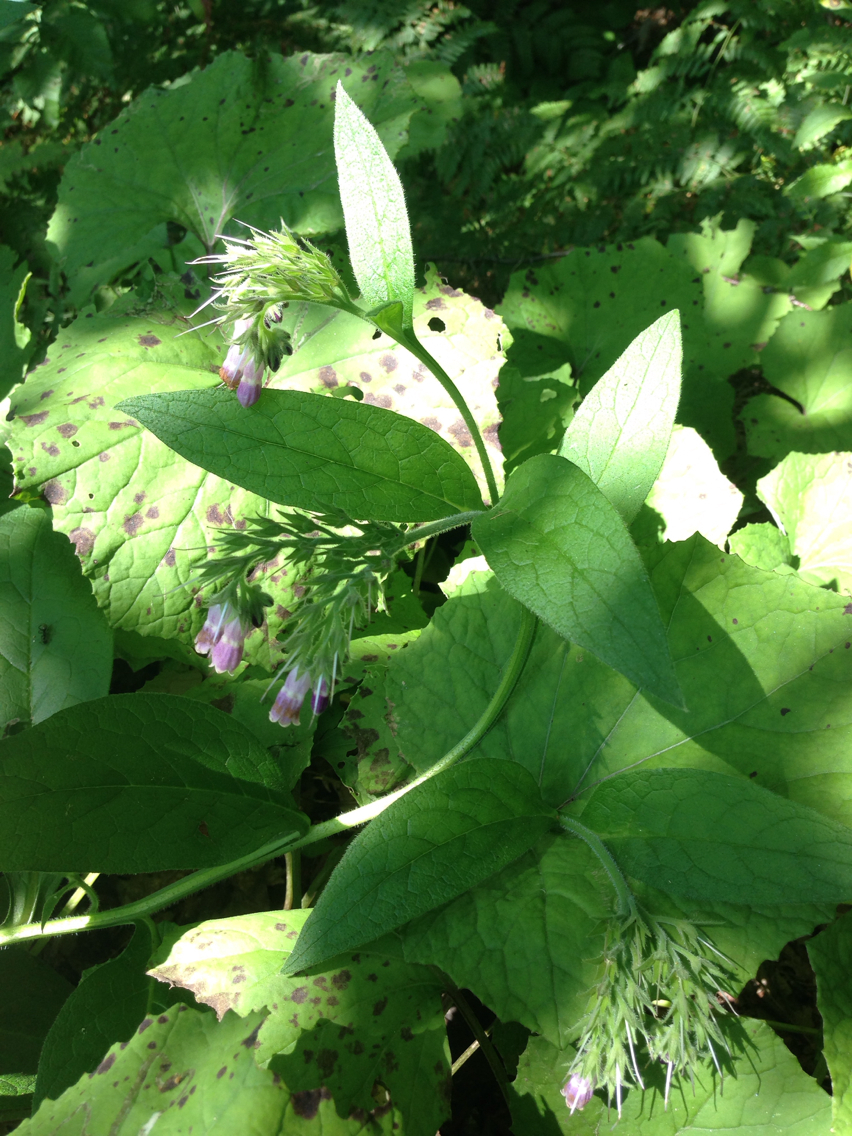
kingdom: Plantae
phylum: Tracheophyta
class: Magnoliopsida
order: Boraginales
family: Boraginaceae
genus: Symphytum
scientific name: Symphytum officinale
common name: Common comfrey
